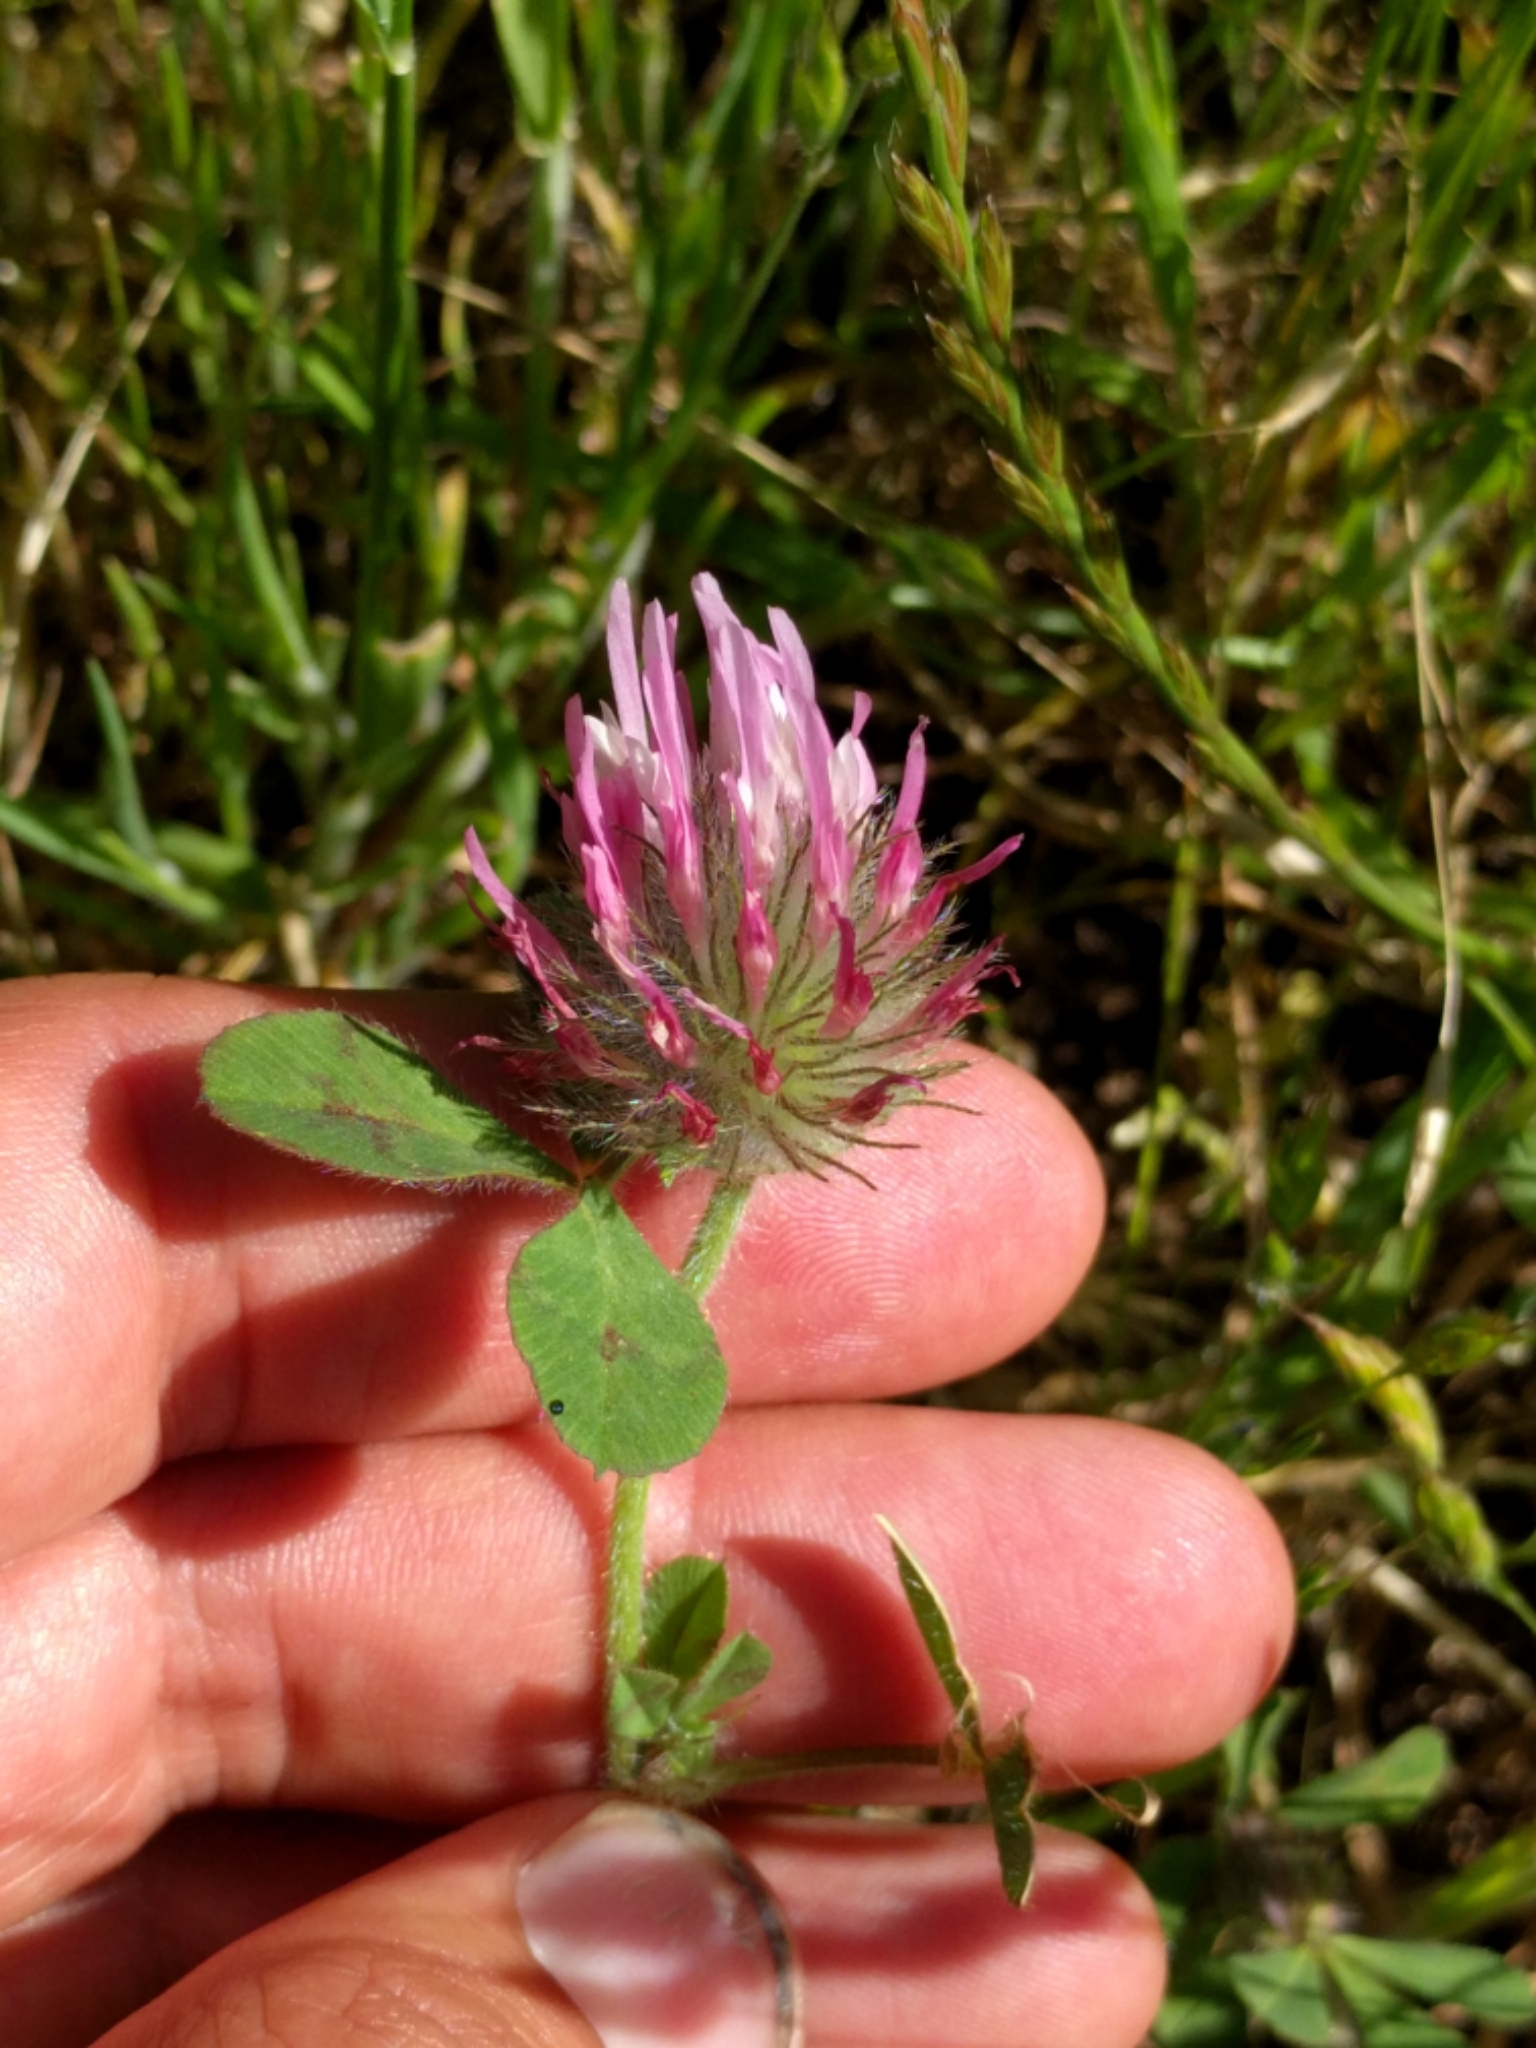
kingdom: Plantae
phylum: Tracheophyta
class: Magnoliopsida
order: Fabales
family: Fabaceae
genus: Trifolium
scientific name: Trifolium hirtum
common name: Rose clover
